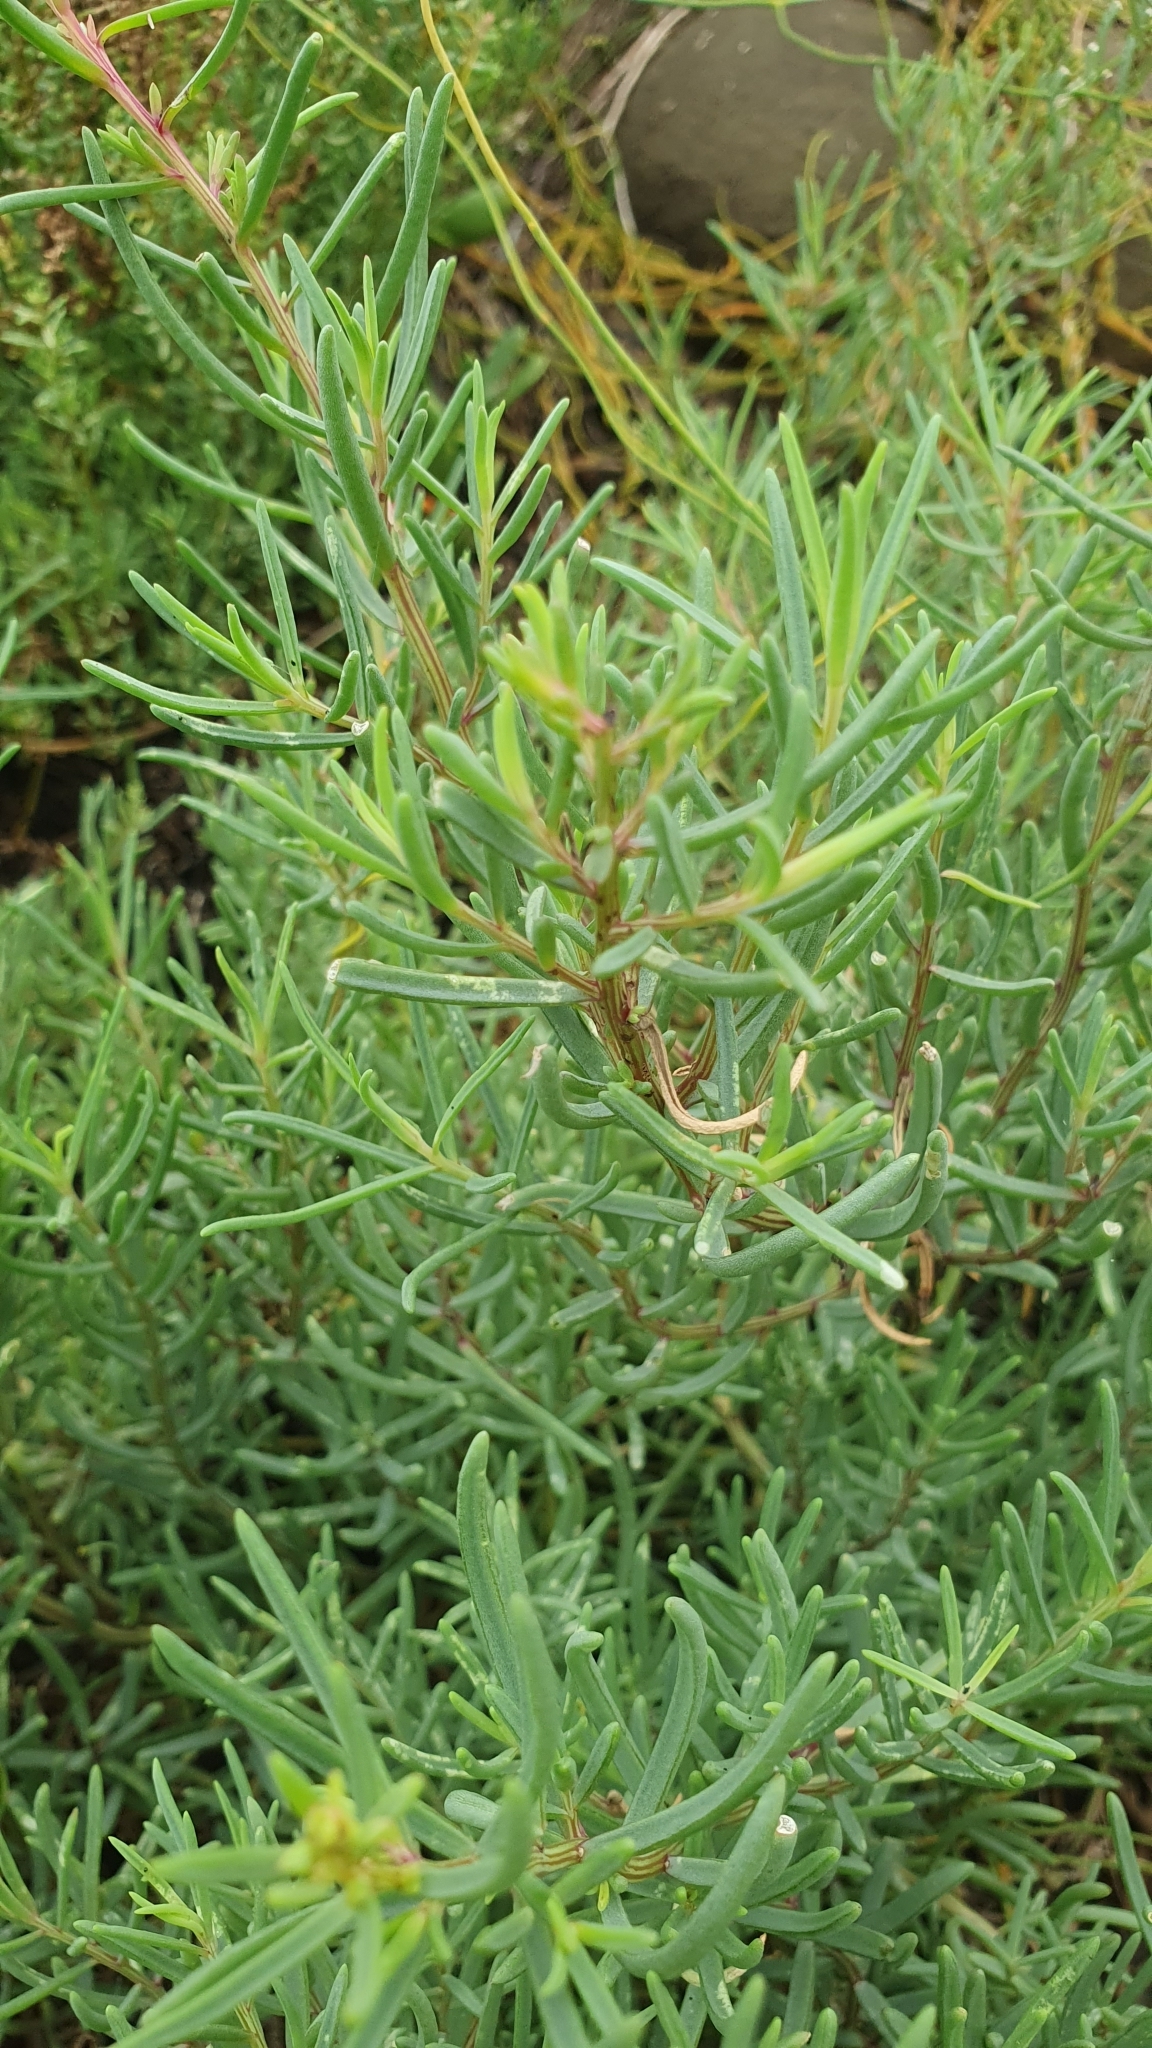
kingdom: Plantae
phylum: Tracheophyta
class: Magnoliopsida
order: Caryophyllales
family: Amaranthaceae
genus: Suaeda
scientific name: Suaeda maritima
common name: Annual sea-blite
